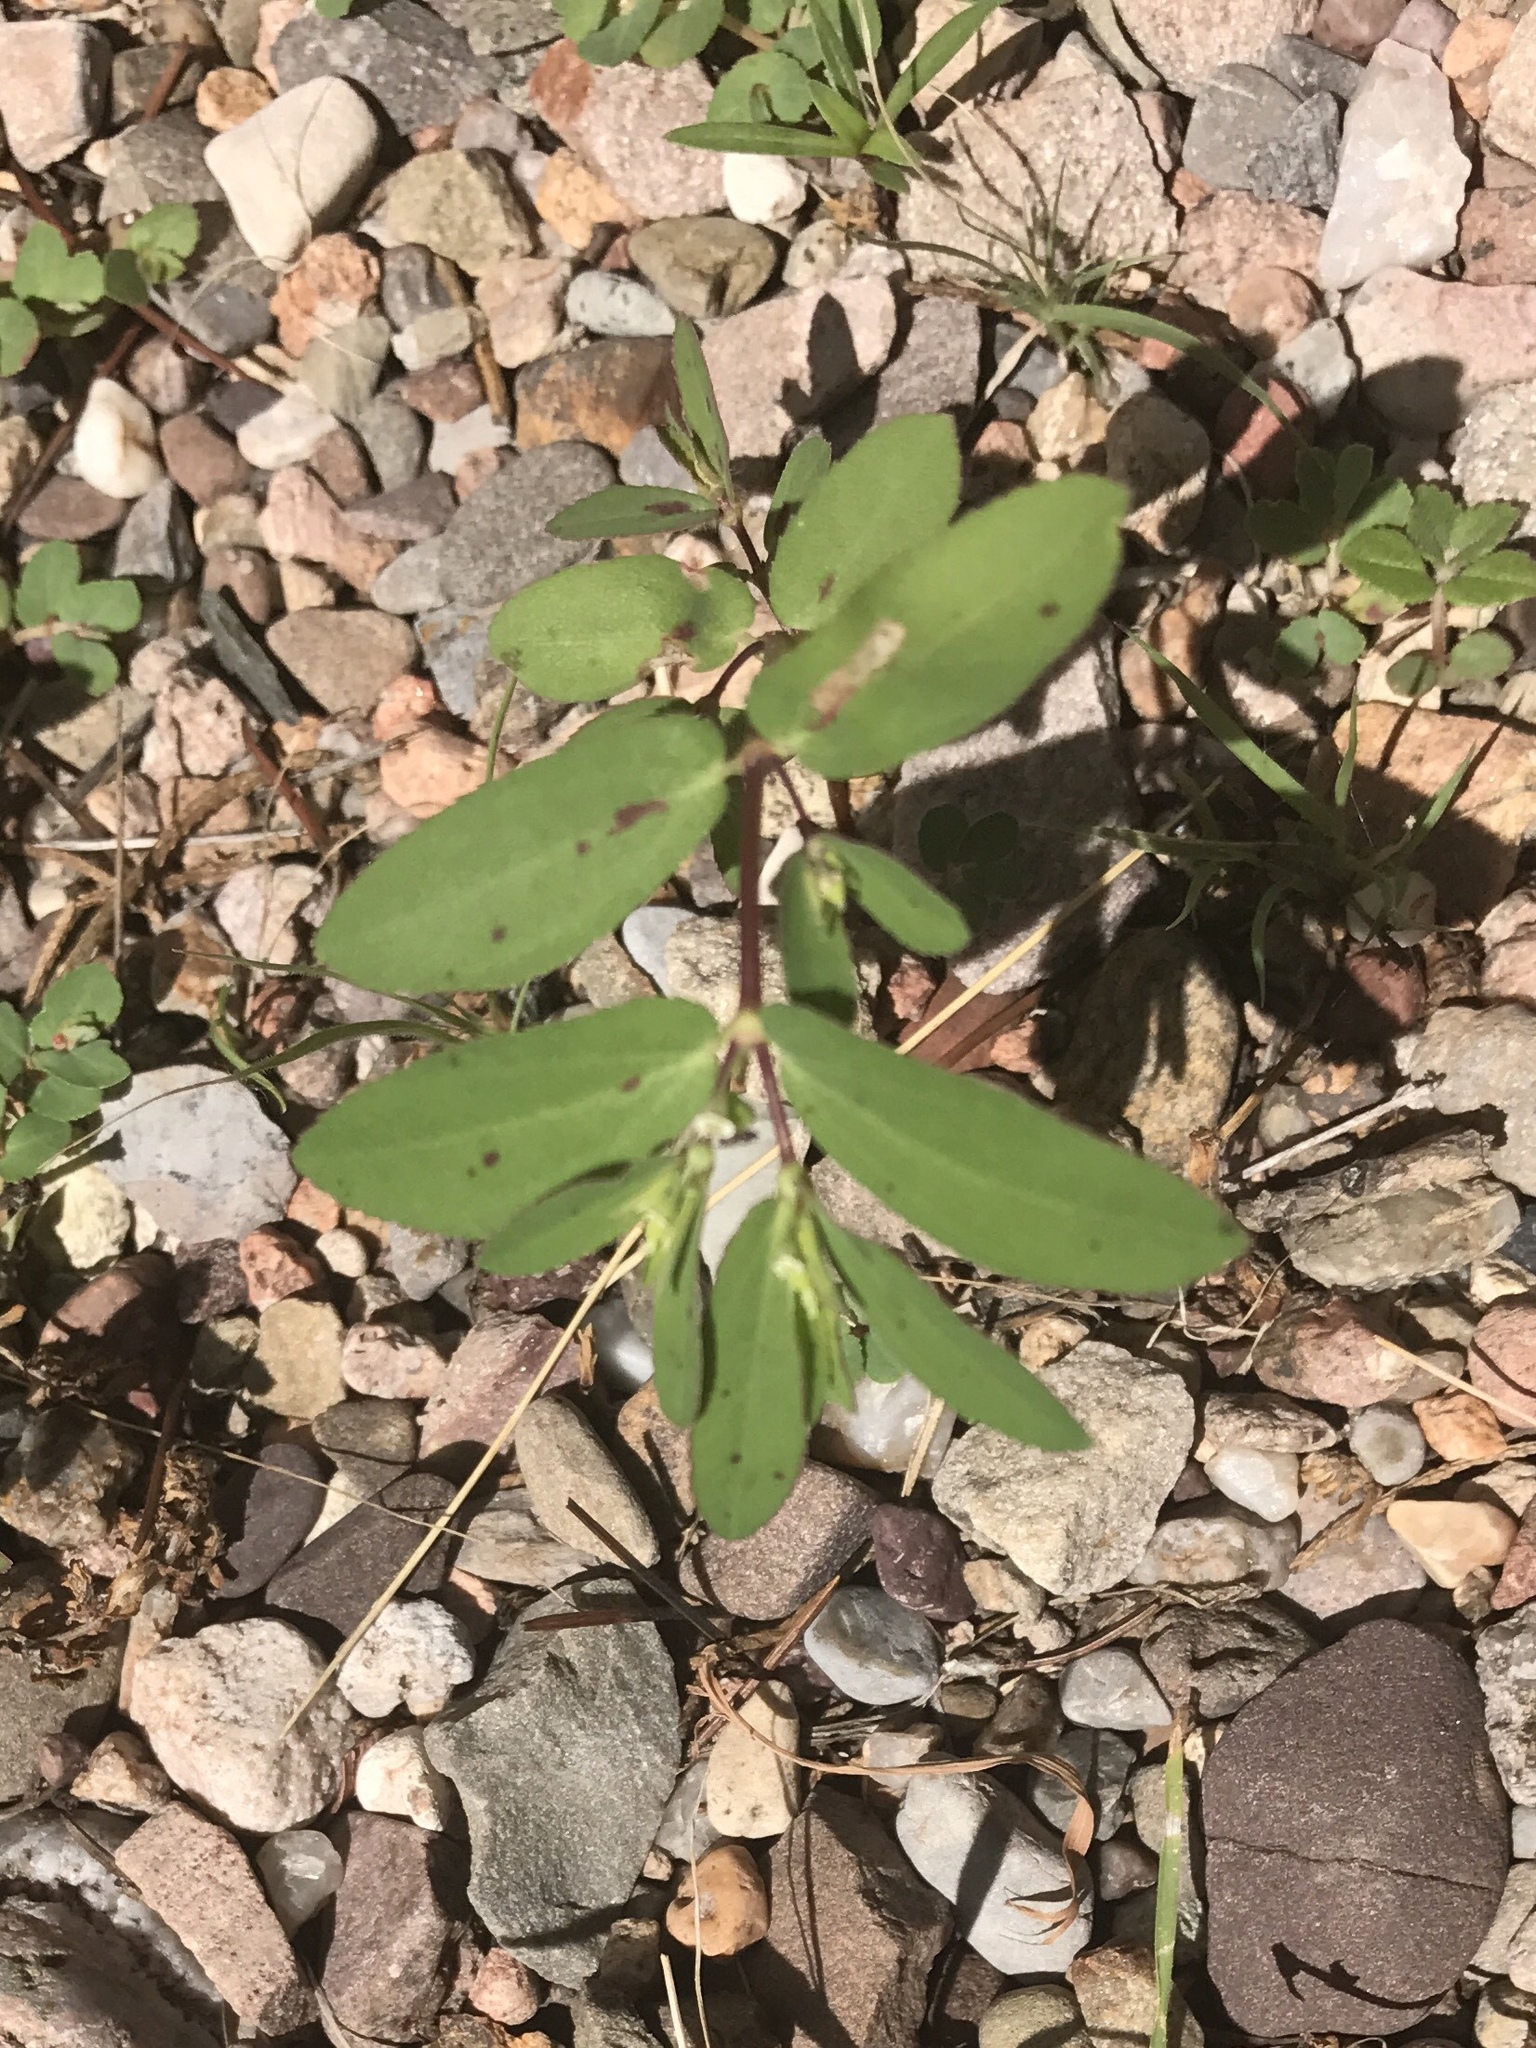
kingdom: Plantae
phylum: Tracheophyta
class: Magnoliopsida
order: Malpighiales
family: Euphorbiaceae
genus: Euphorbia
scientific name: Euphorbia hyssopifolia
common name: Hyssopleaf sandmat
